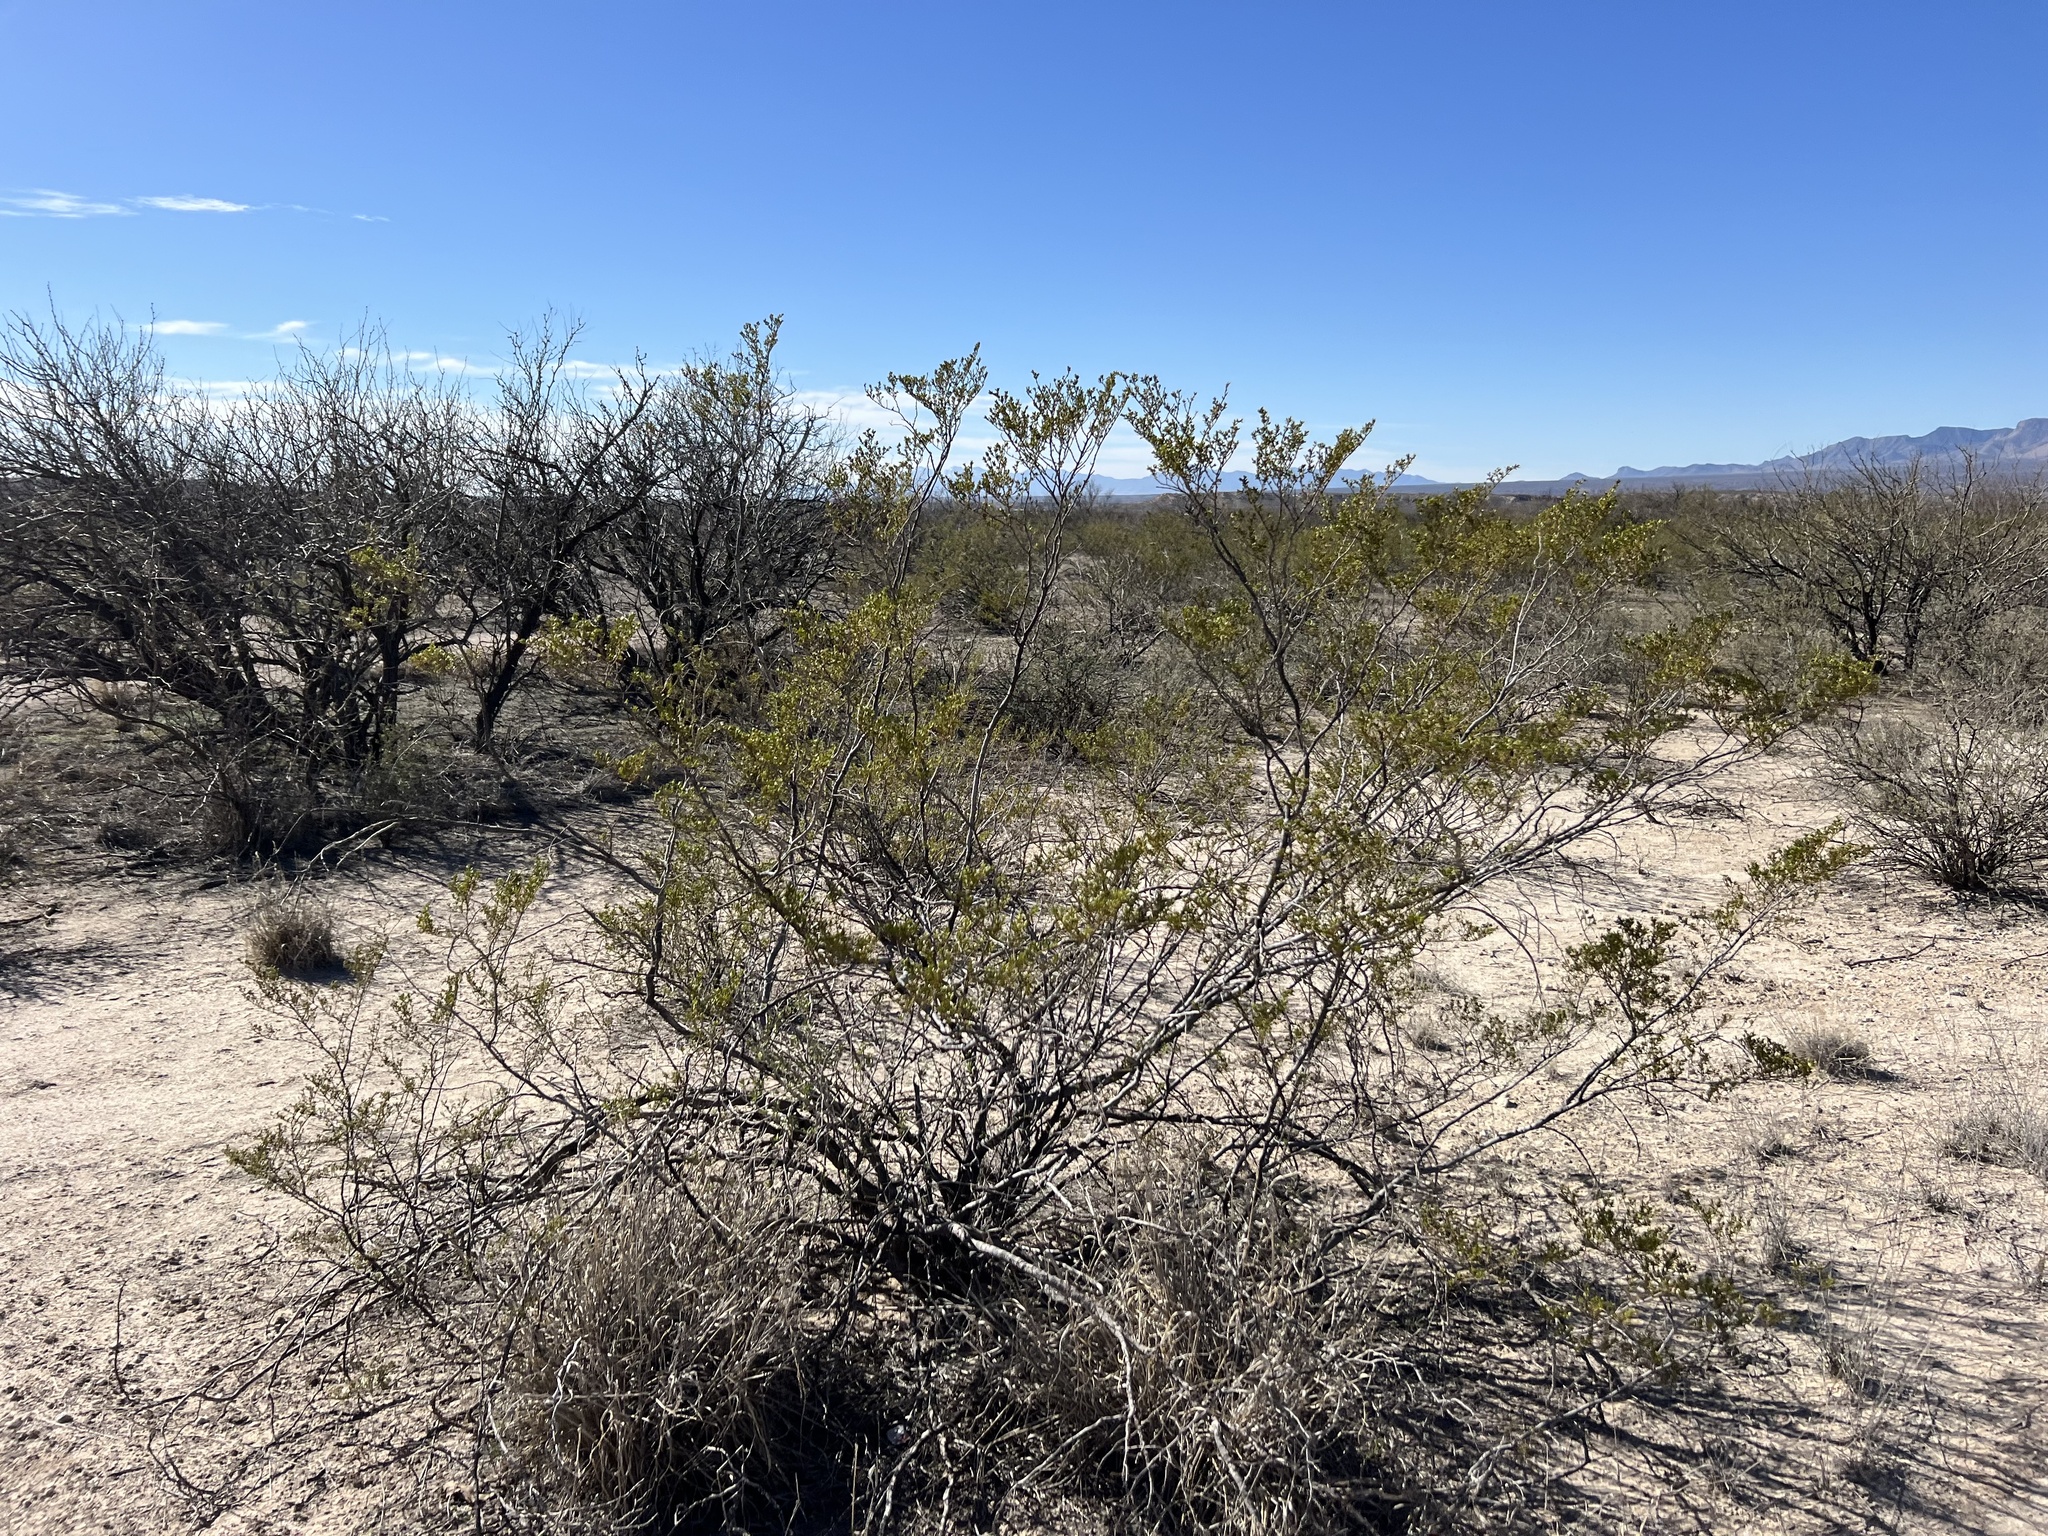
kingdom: Plantae
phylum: Tracheophyta
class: Magnoliopsida
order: Zygophyllales
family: Zygophyllaceae
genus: Larrea
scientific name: Larrea tridentata
